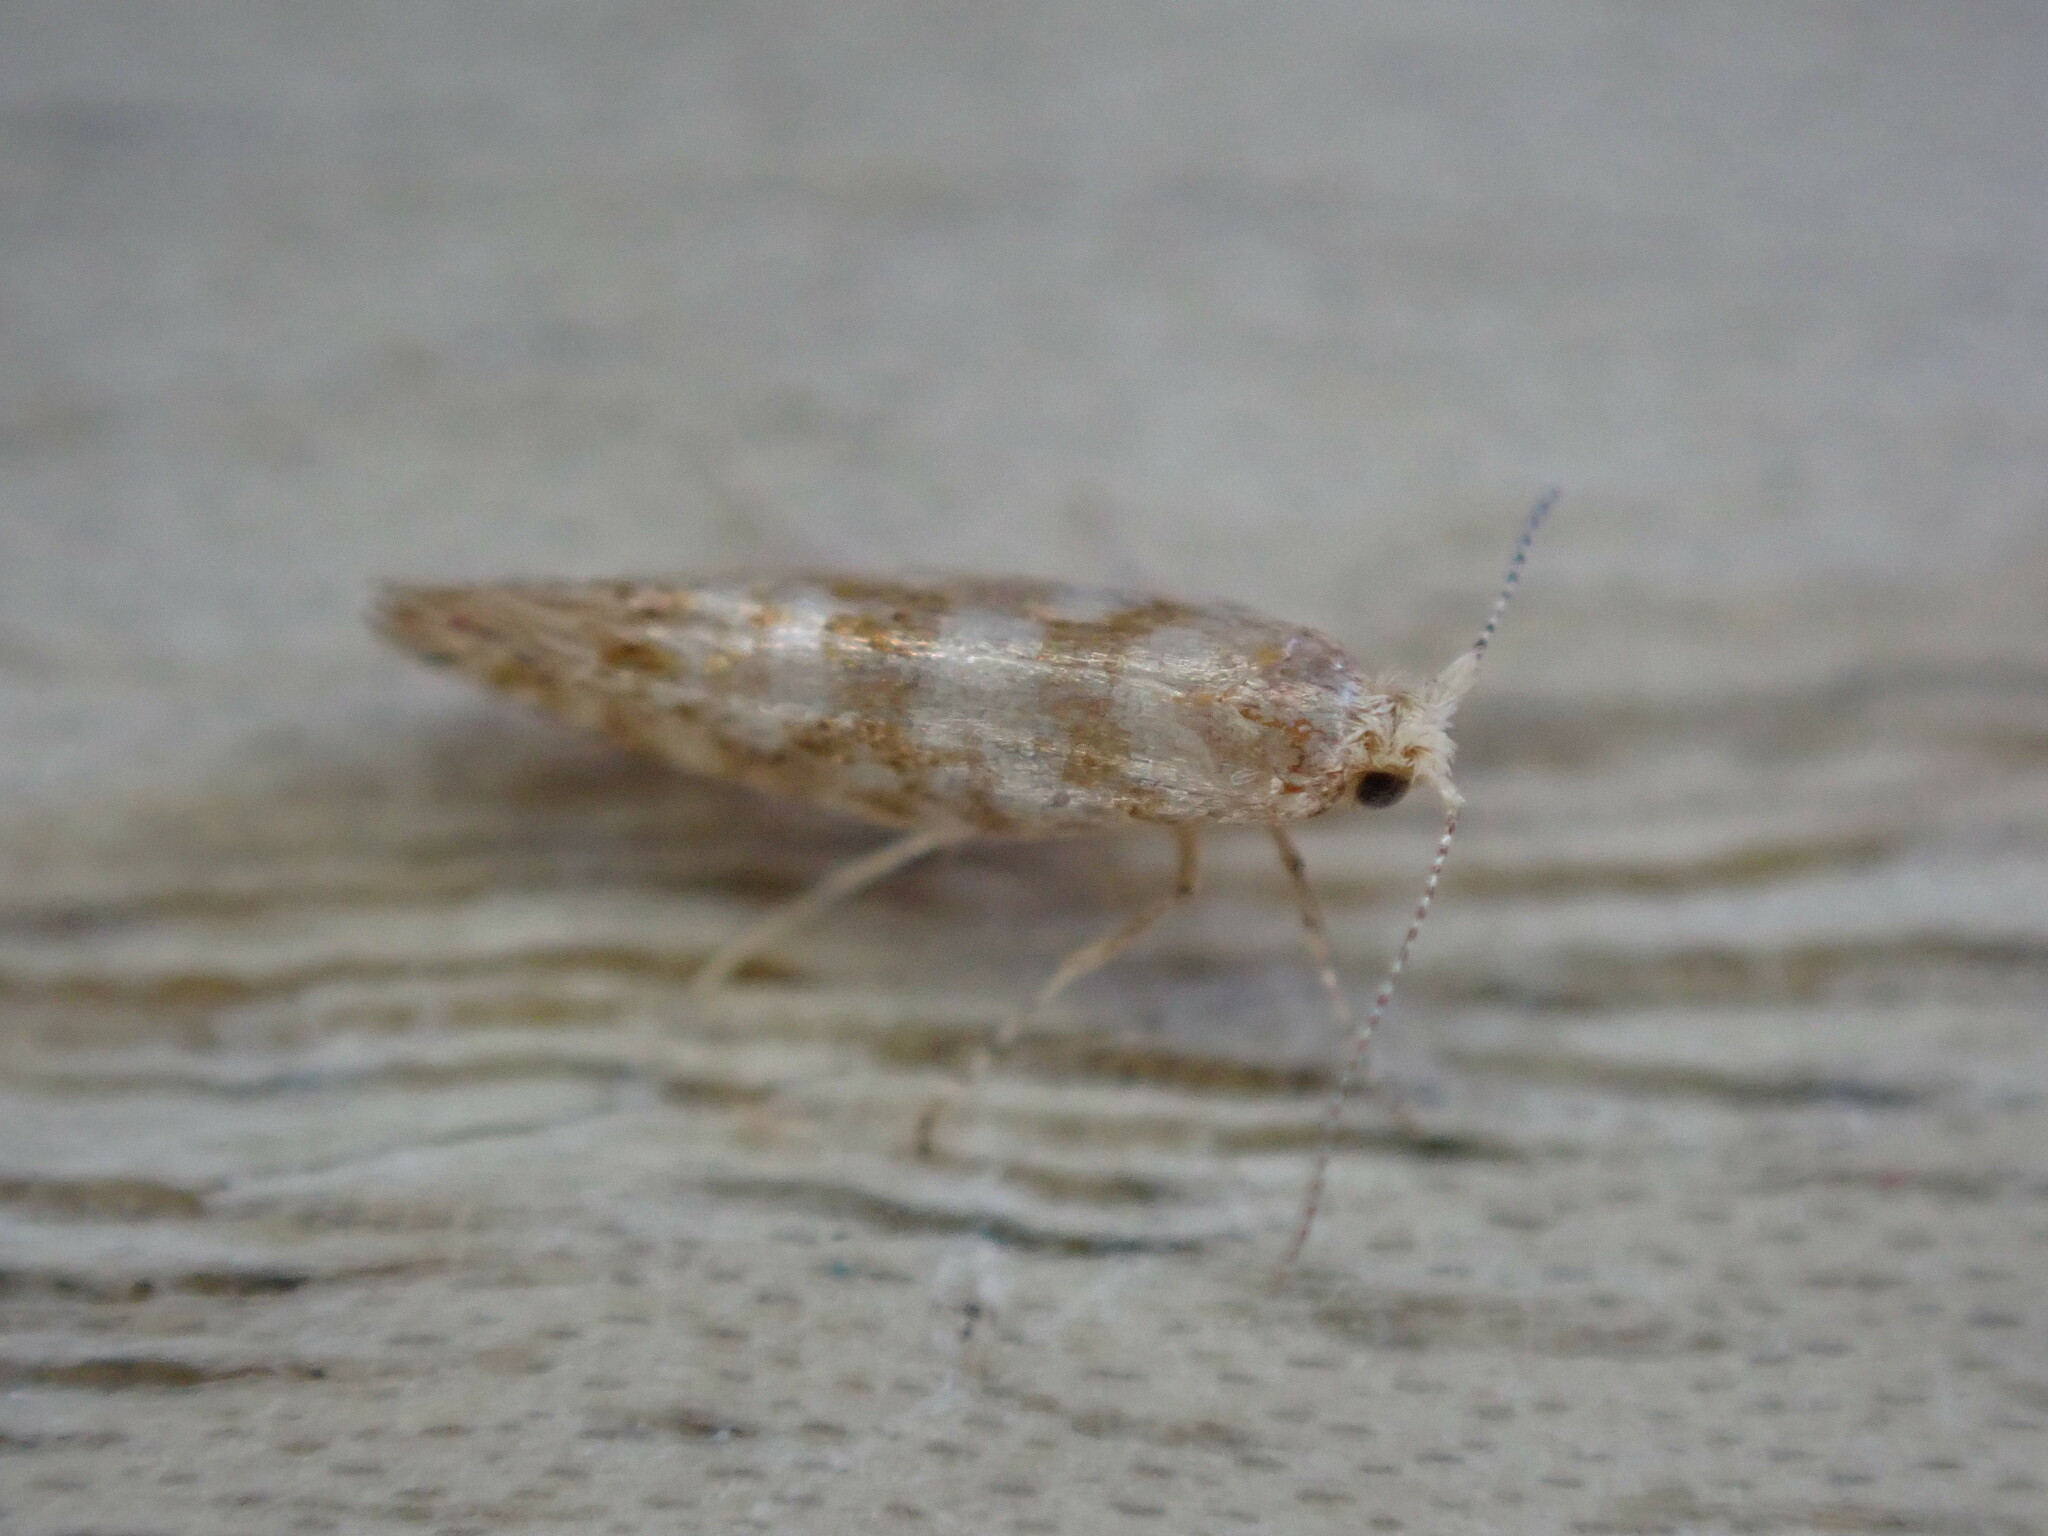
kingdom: Animalia
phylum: Arthropoda
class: Insecta
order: Lepidoptera
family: Argyresthiidae
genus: Argyresthia
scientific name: Argyresthia cupressella
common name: Cypress tip moth
